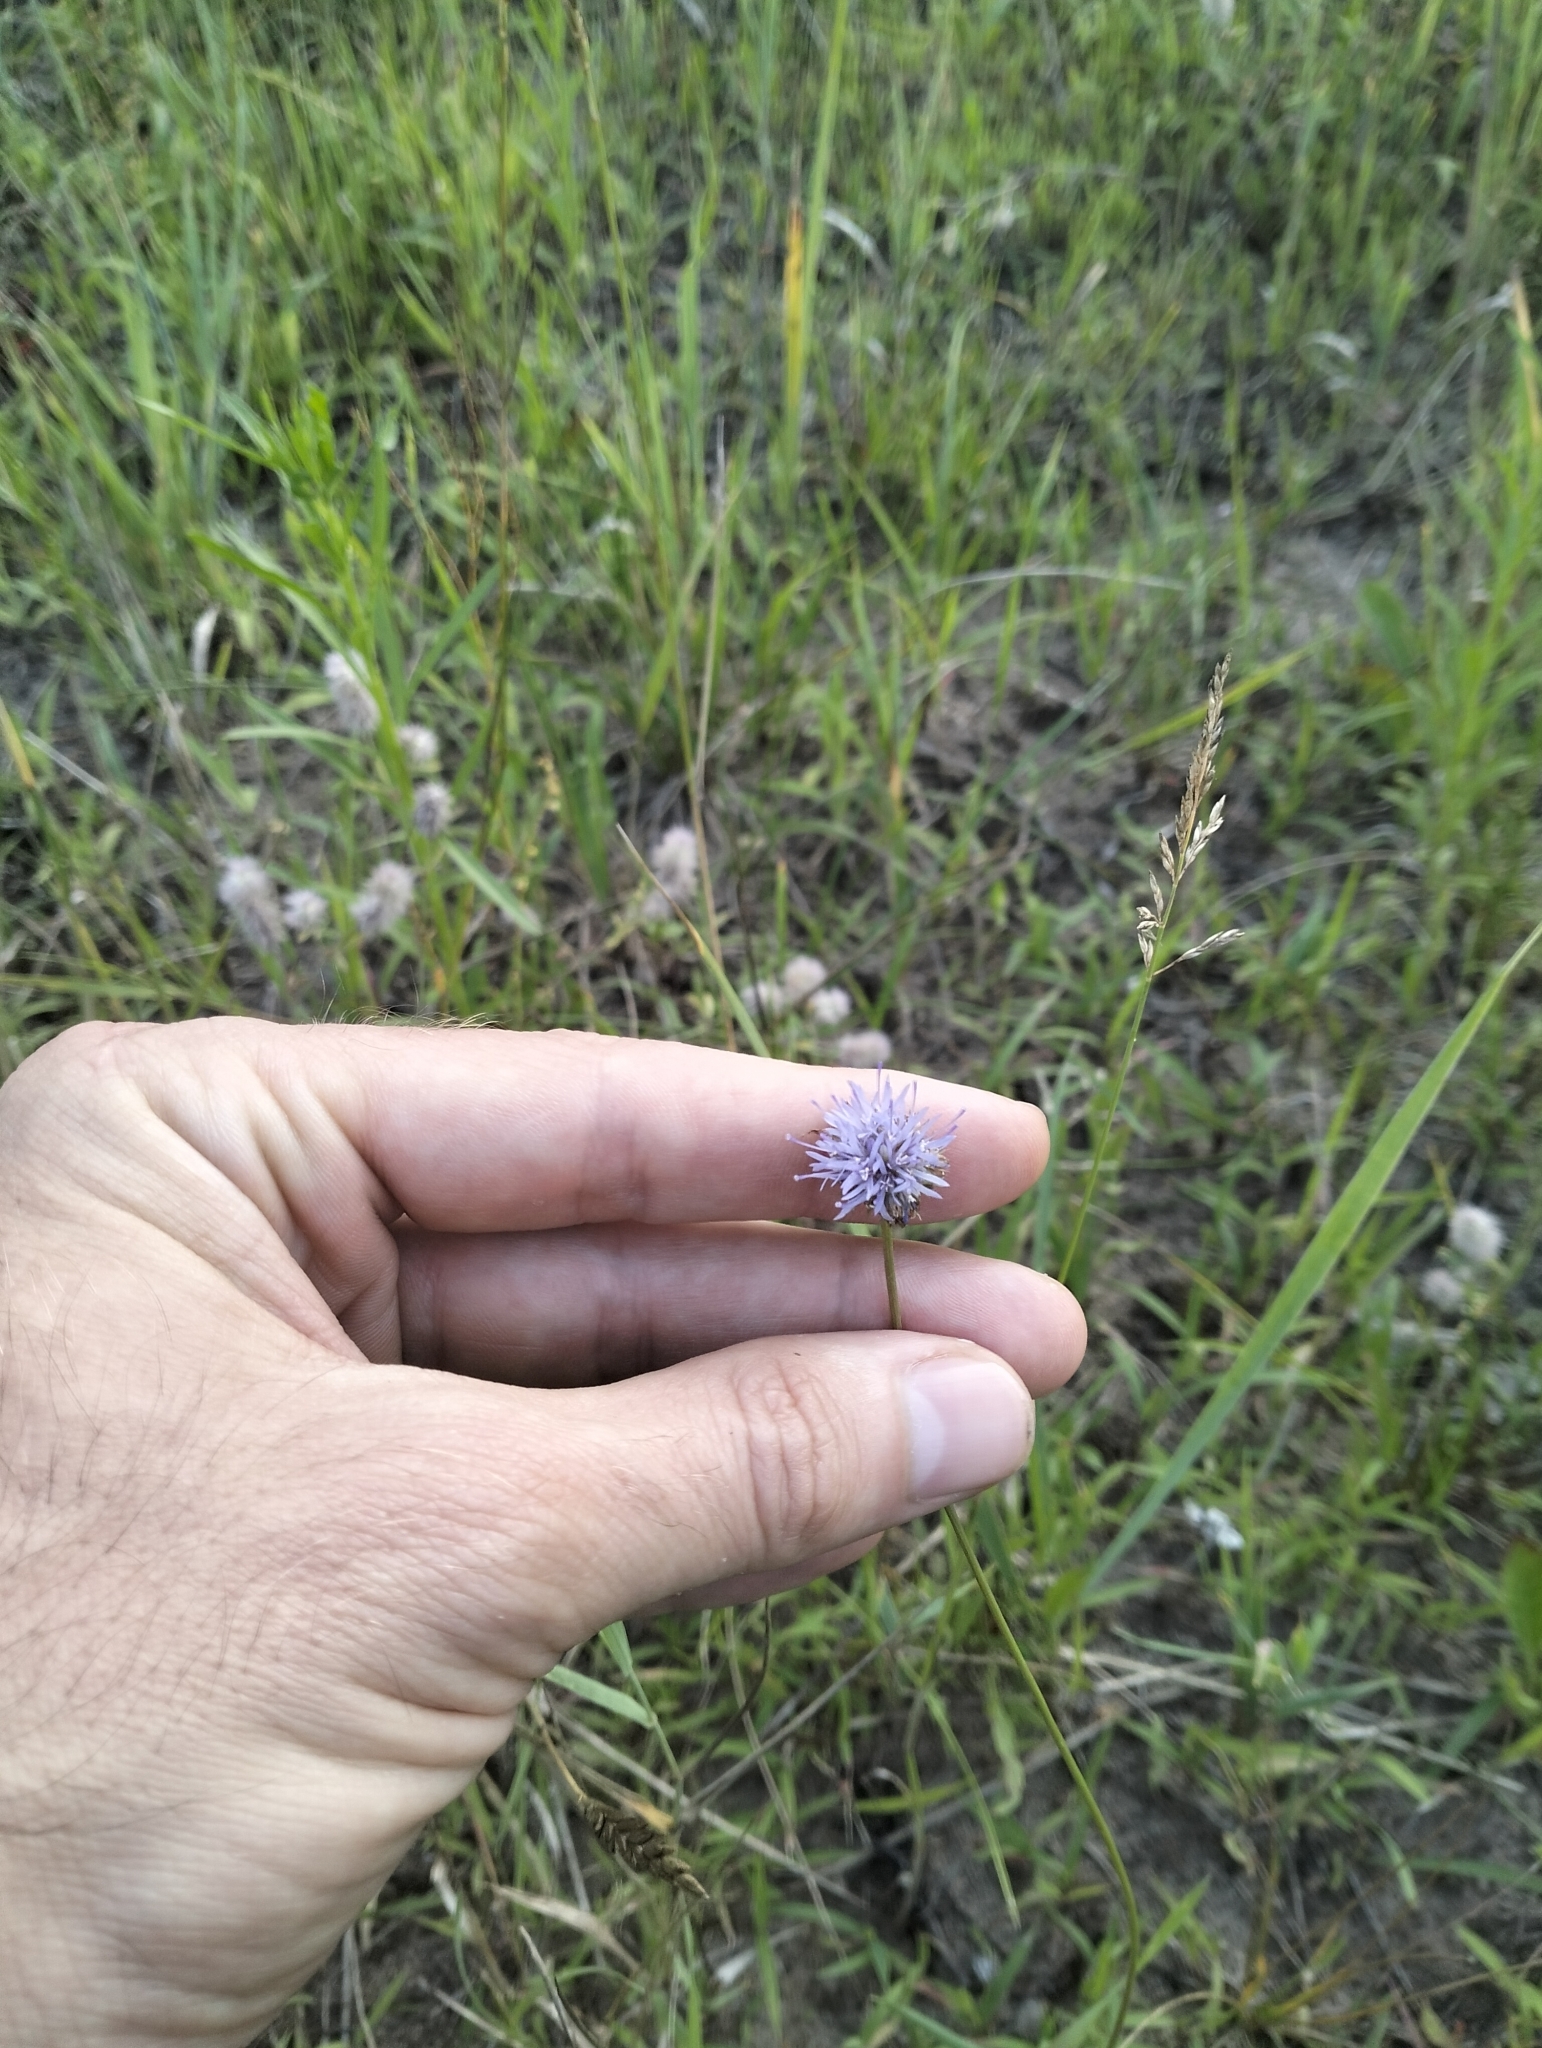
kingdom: Plantae
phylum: Tracheophyta
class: Magnoliopsida
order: Asterales
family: Campanulaceae
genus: Jasione
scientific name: Jasione montana
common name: Sheep's-bit
